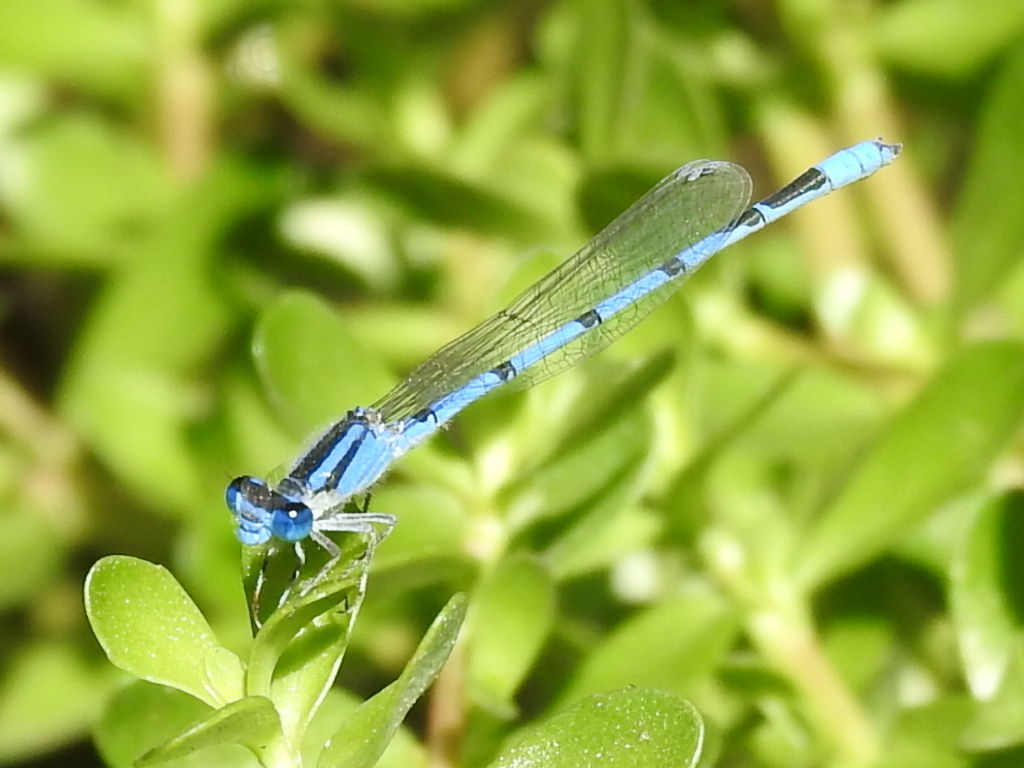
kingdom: Animalia
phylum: Arthropoda
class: Insecta
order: Odonata
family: Coenagrionidae
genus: Enallagma
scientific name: Enallagma civile
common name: Damselfly
